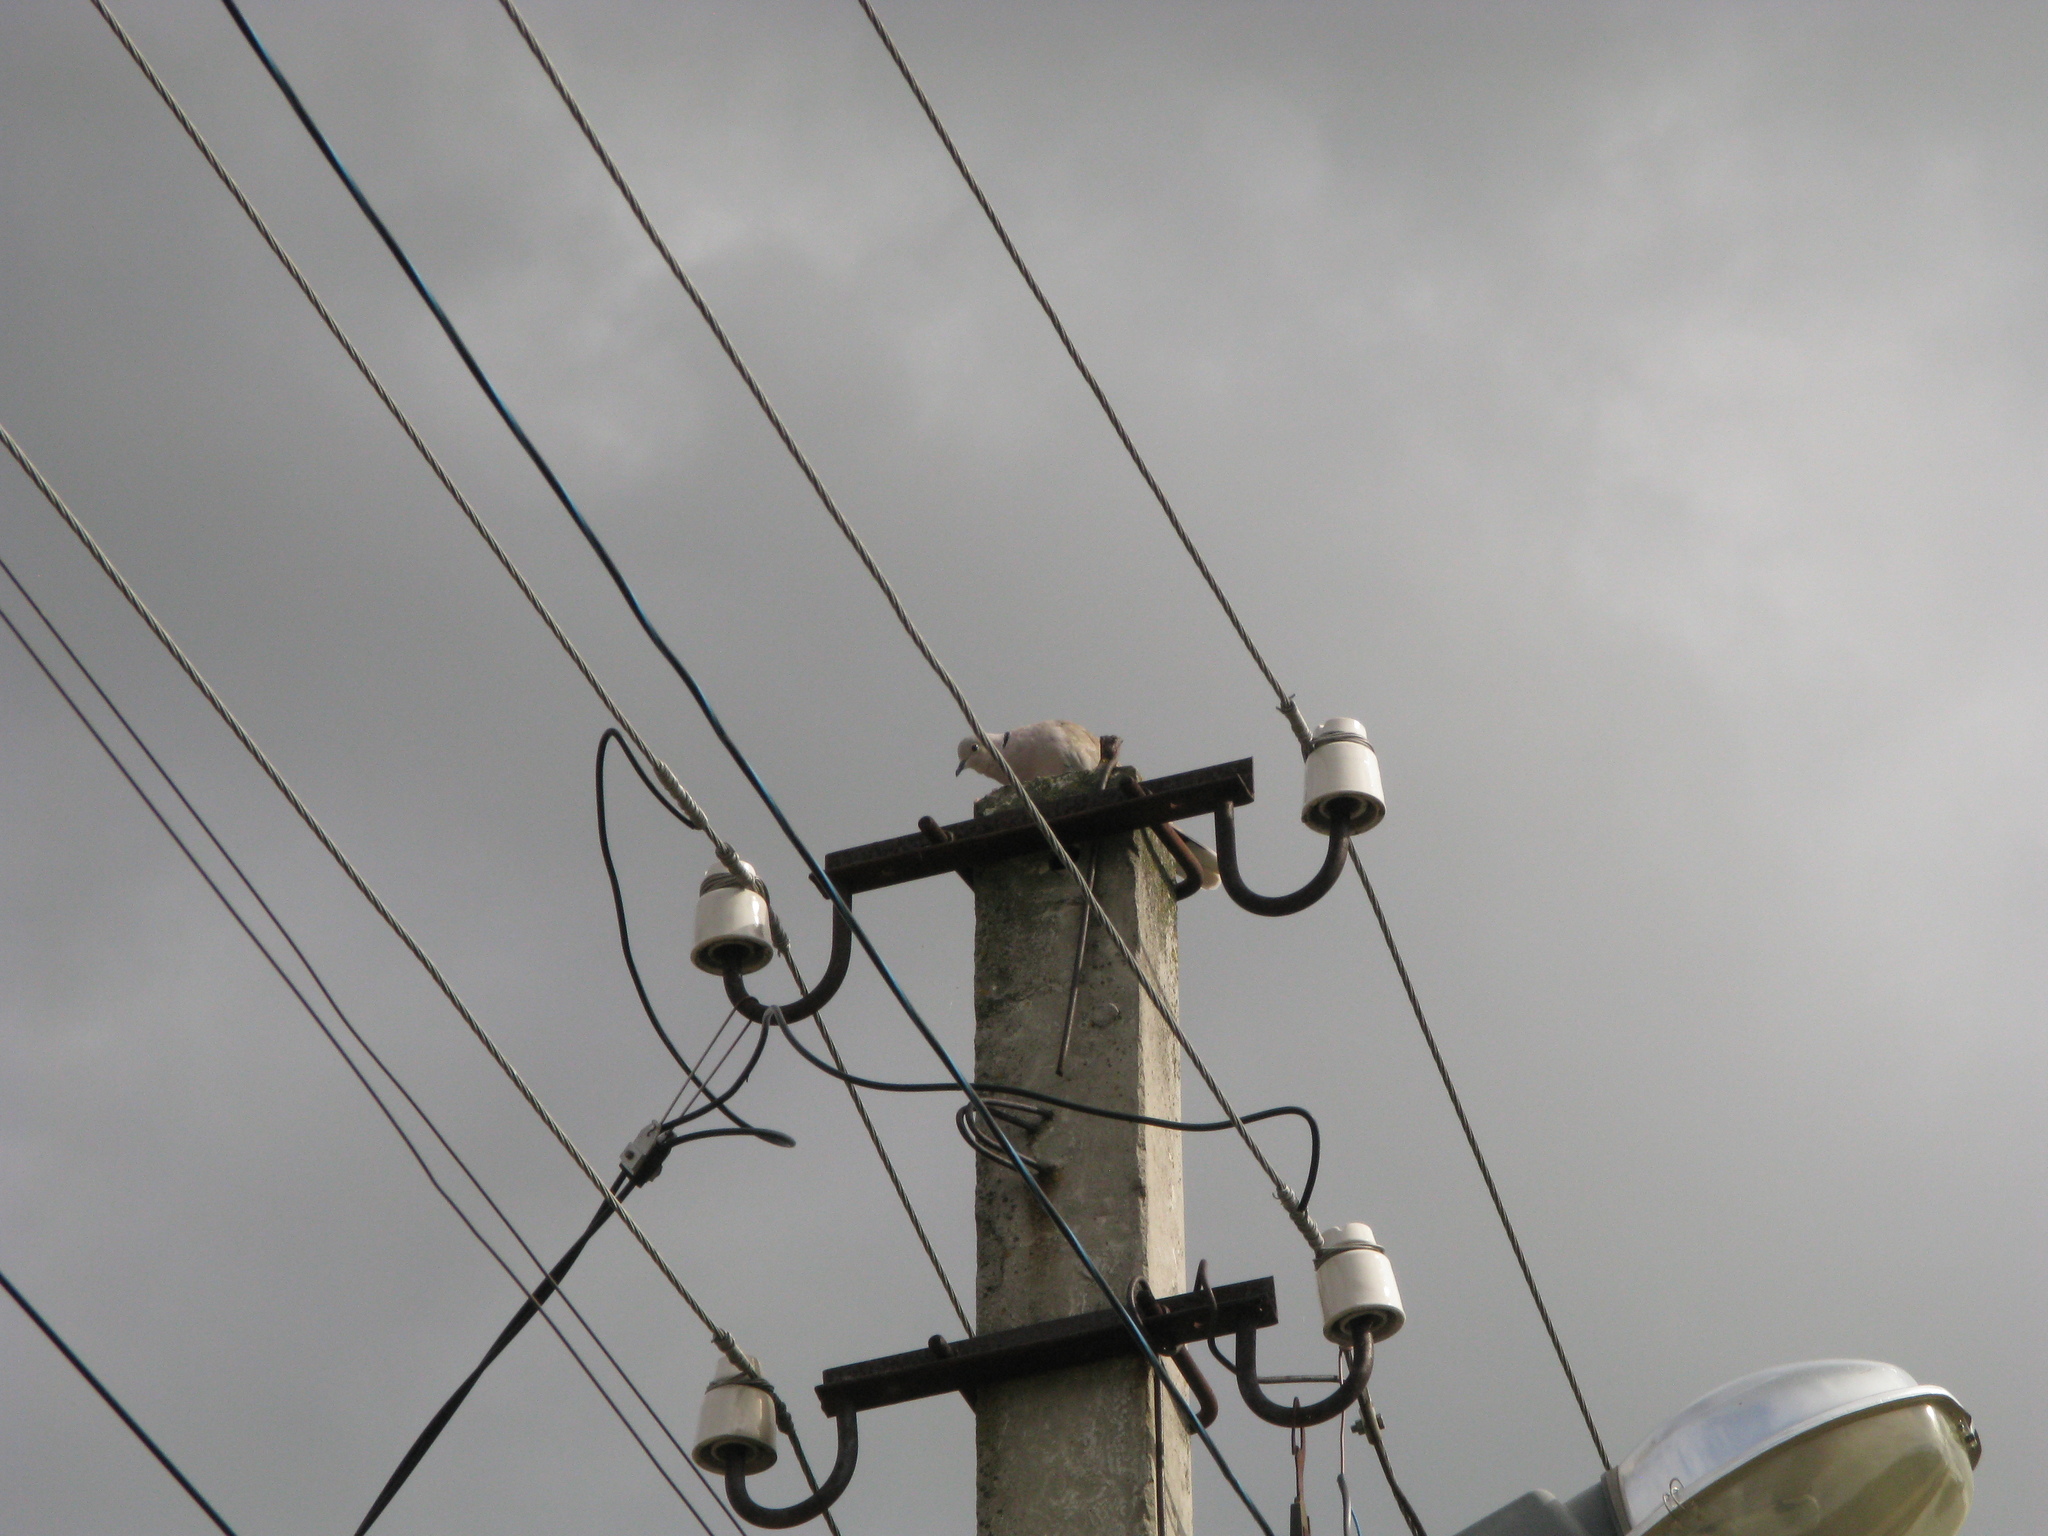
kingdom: Animalia
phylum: Chordata
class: Aves
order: Columbiformes
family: Columbidae
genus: Streptopelia
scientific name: Streptopelia decaocto
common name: Eurasian collared dove
